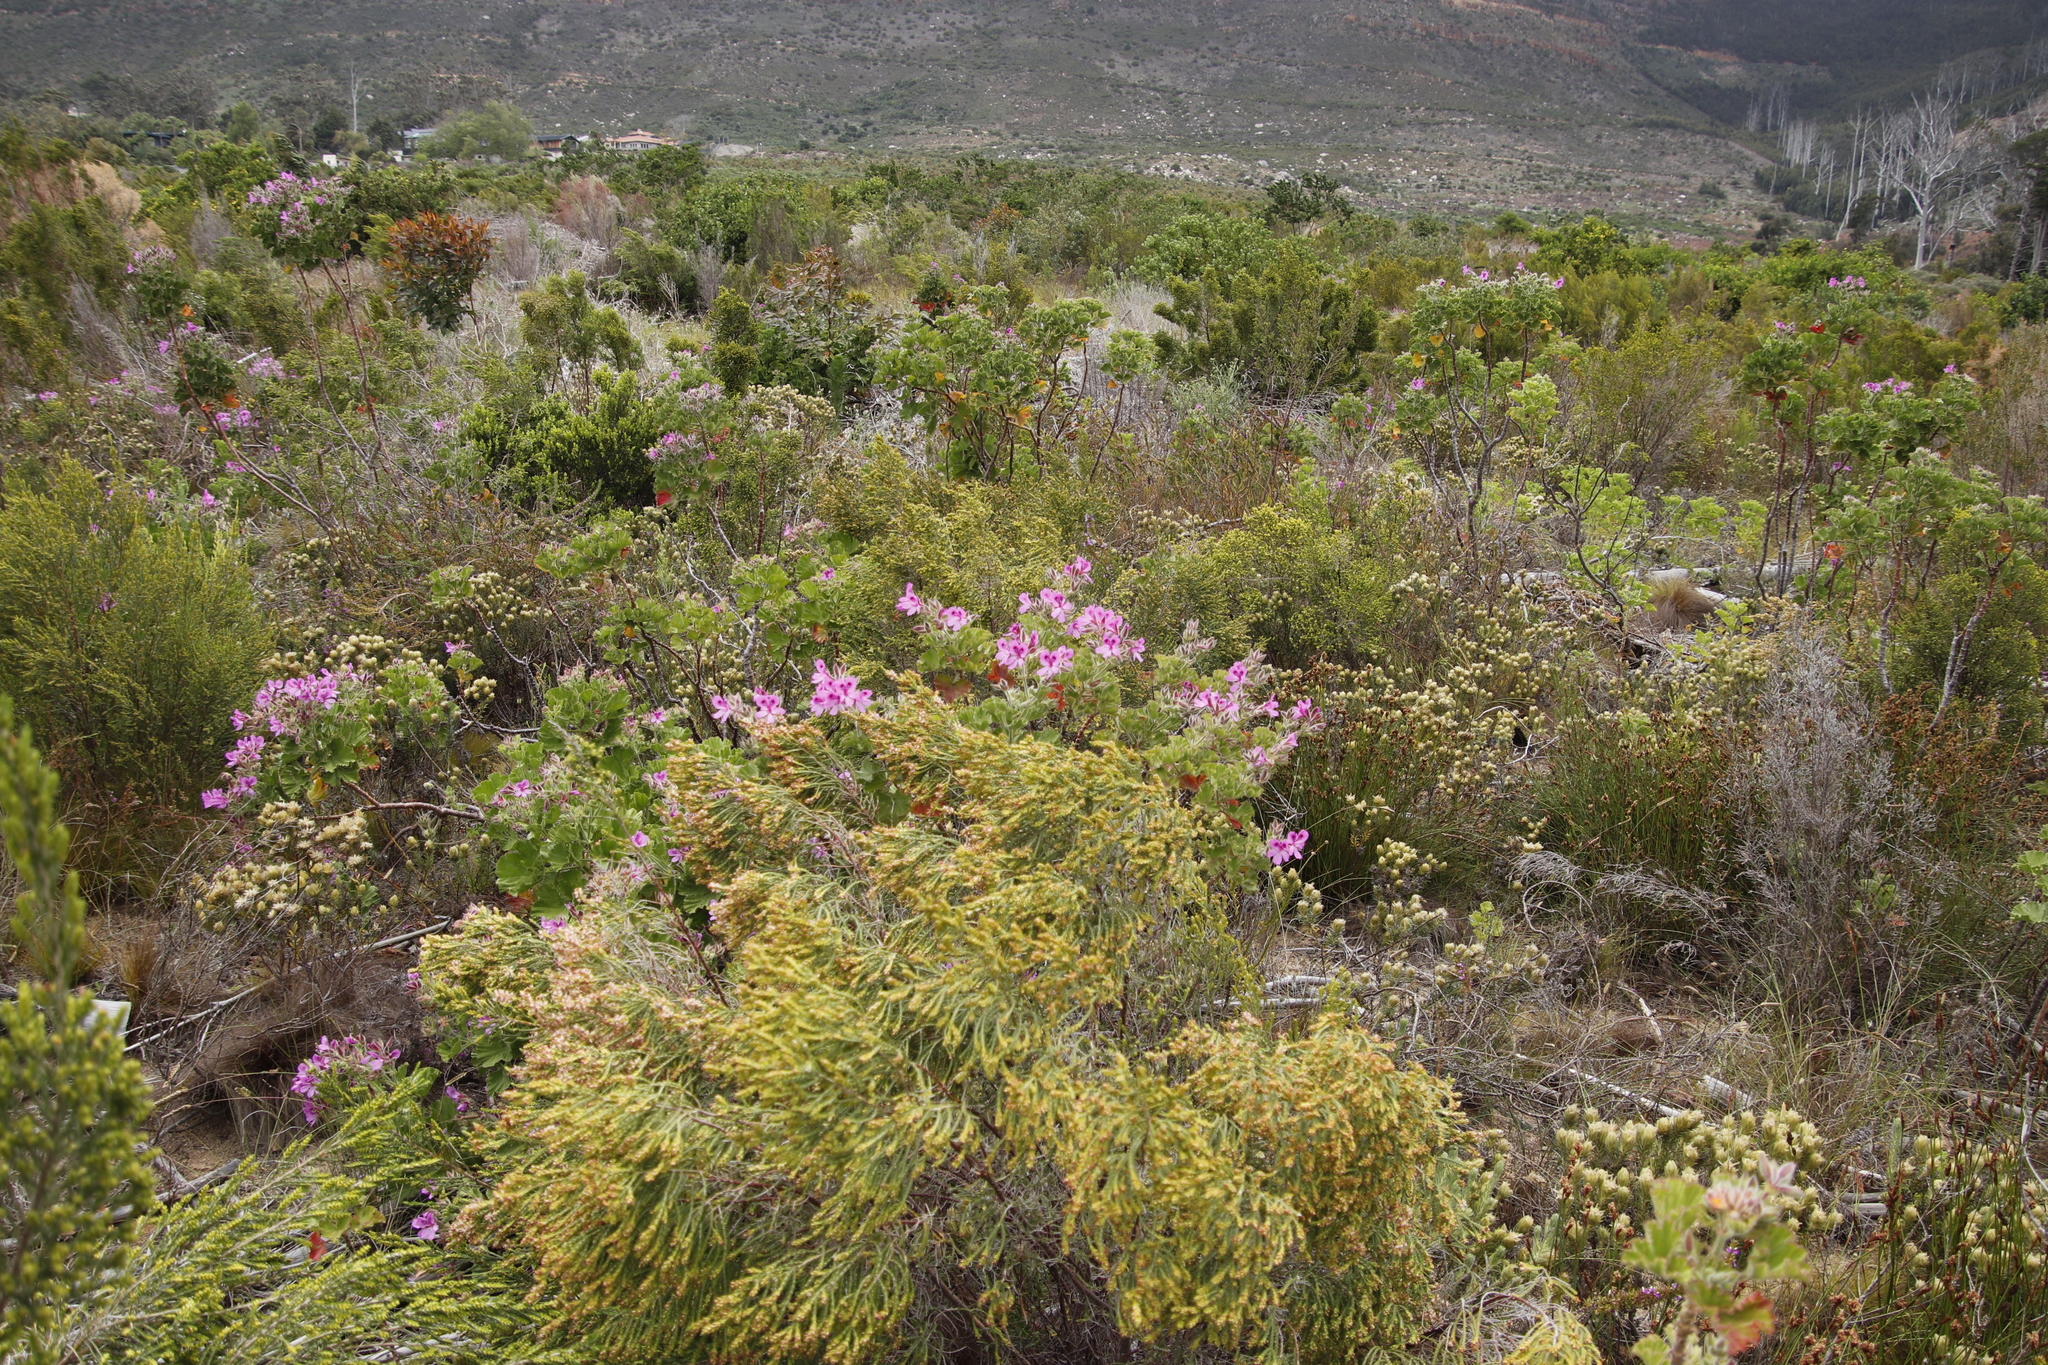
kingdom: Plantae
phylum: Tracheophyta
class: Magnoliopsida
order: Geraniales
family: Geraniaceae
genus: Pelargonium
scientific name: Pelargonium cucullatum
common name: Tree pelargonium
